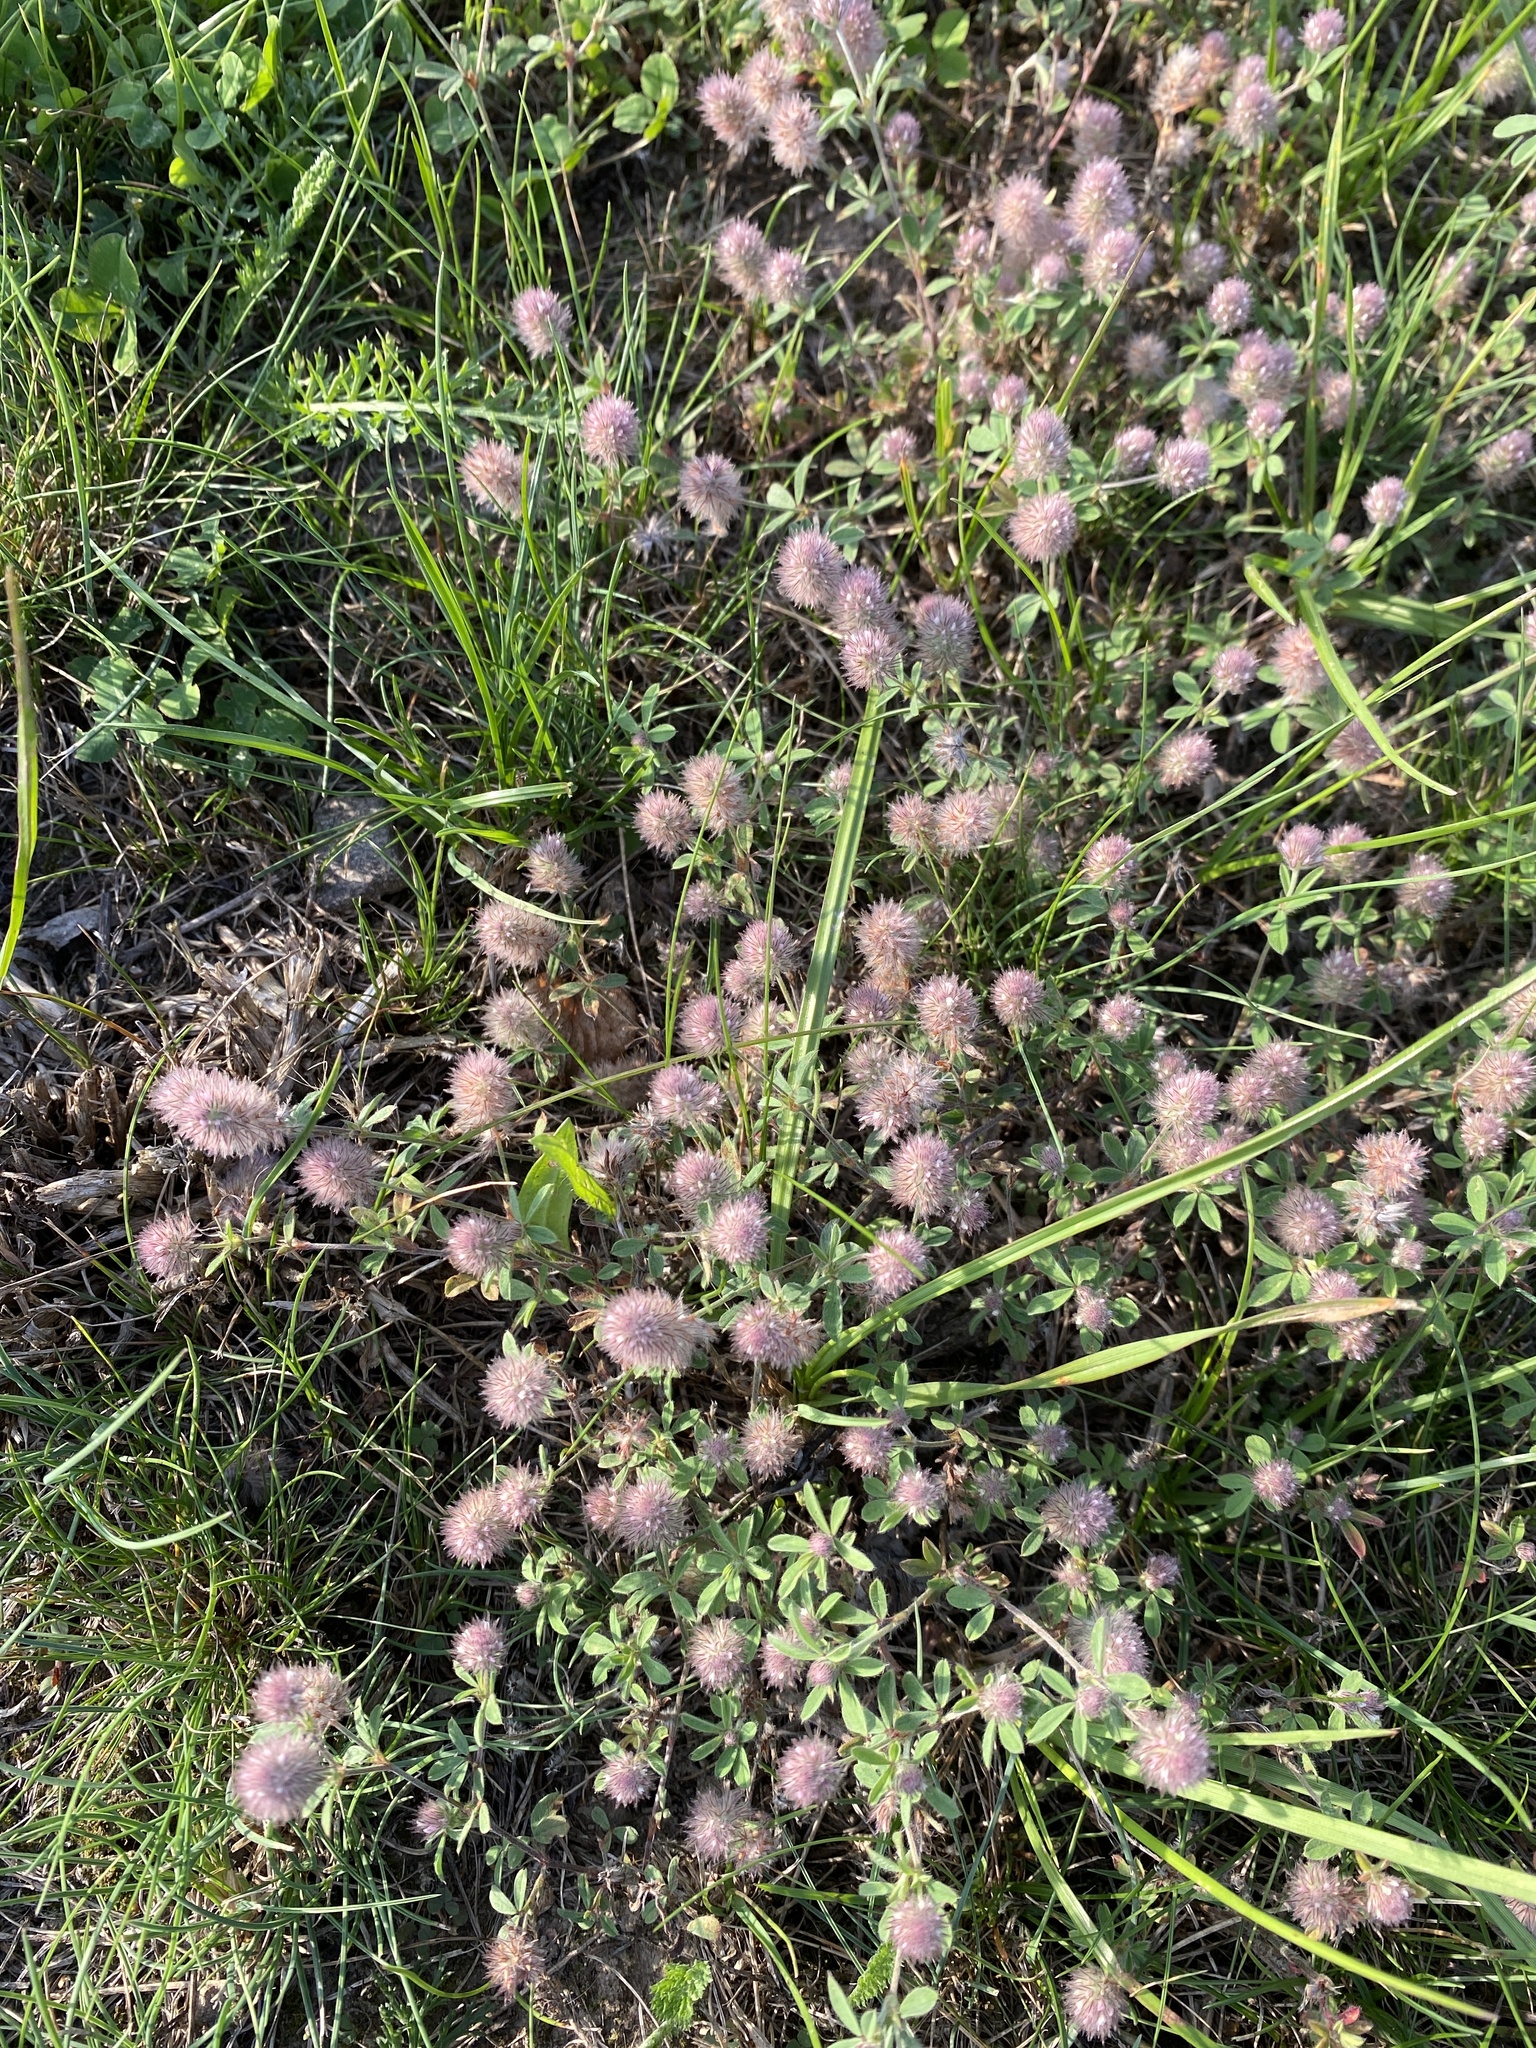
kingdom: Plantae
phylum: Tracheophyta
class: Magnoliopsida
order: Fabales
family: Fabaceae
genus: Trifolium
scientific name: Trifolium arvense
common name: Hare's-foot clover
